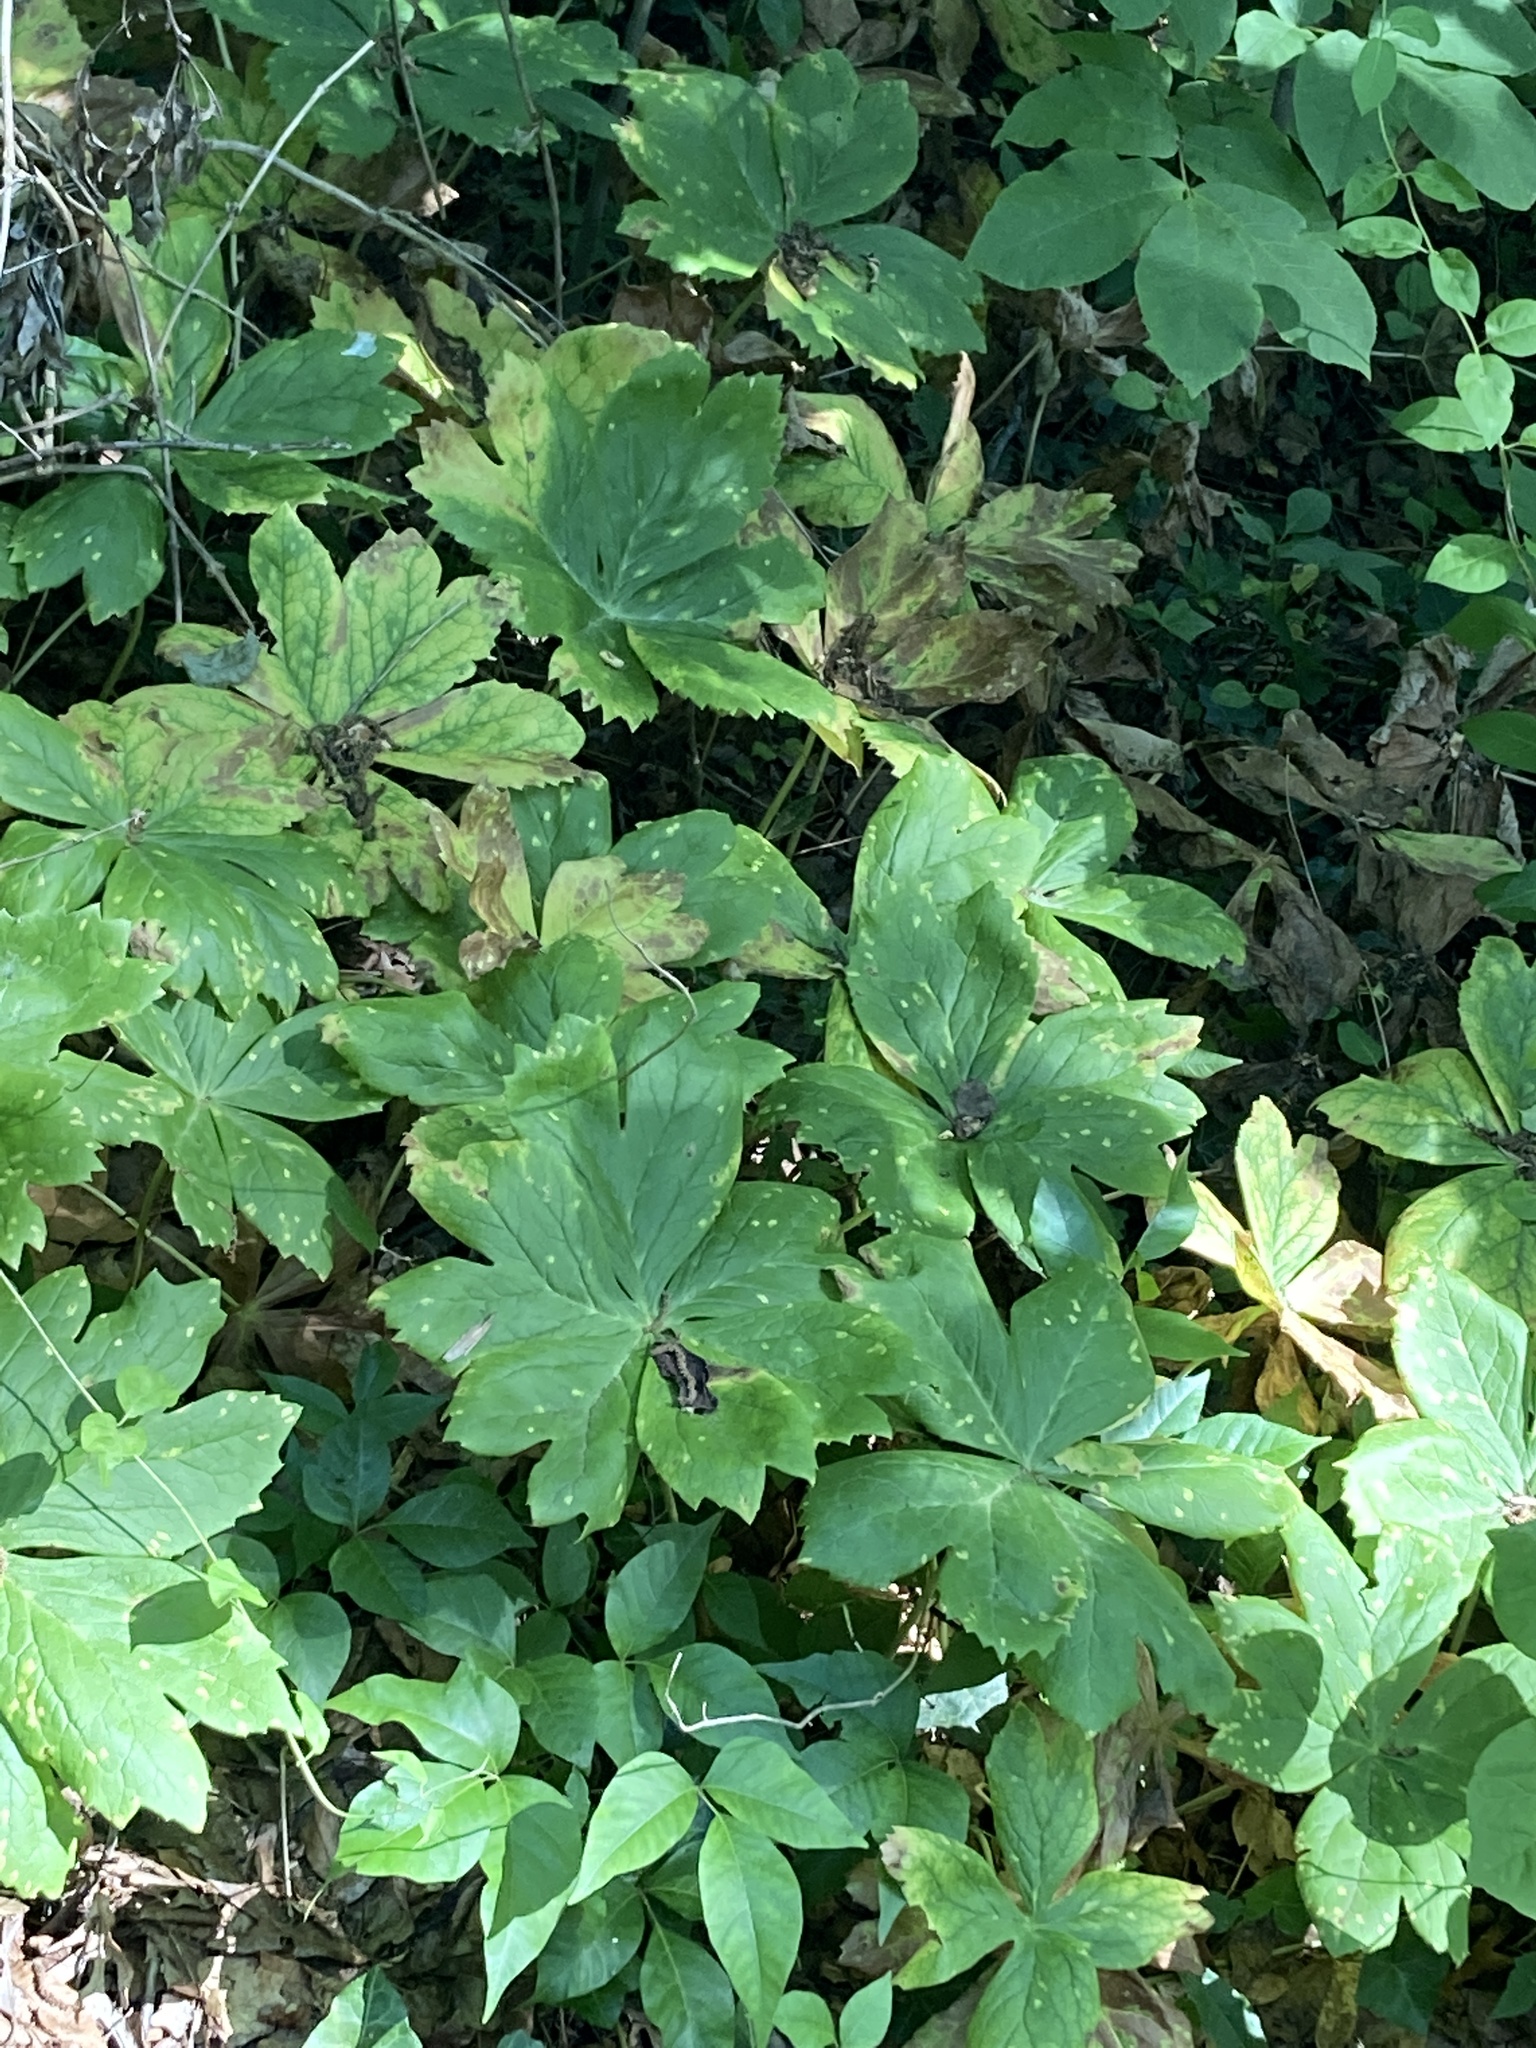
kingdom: Plantae
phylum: Tracheophyta
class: Magnoliopsida
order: Ranunculales
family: Berberidaceae
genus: Podophyllum
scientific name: Podophyllum peltatum
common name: Wild mandrake
